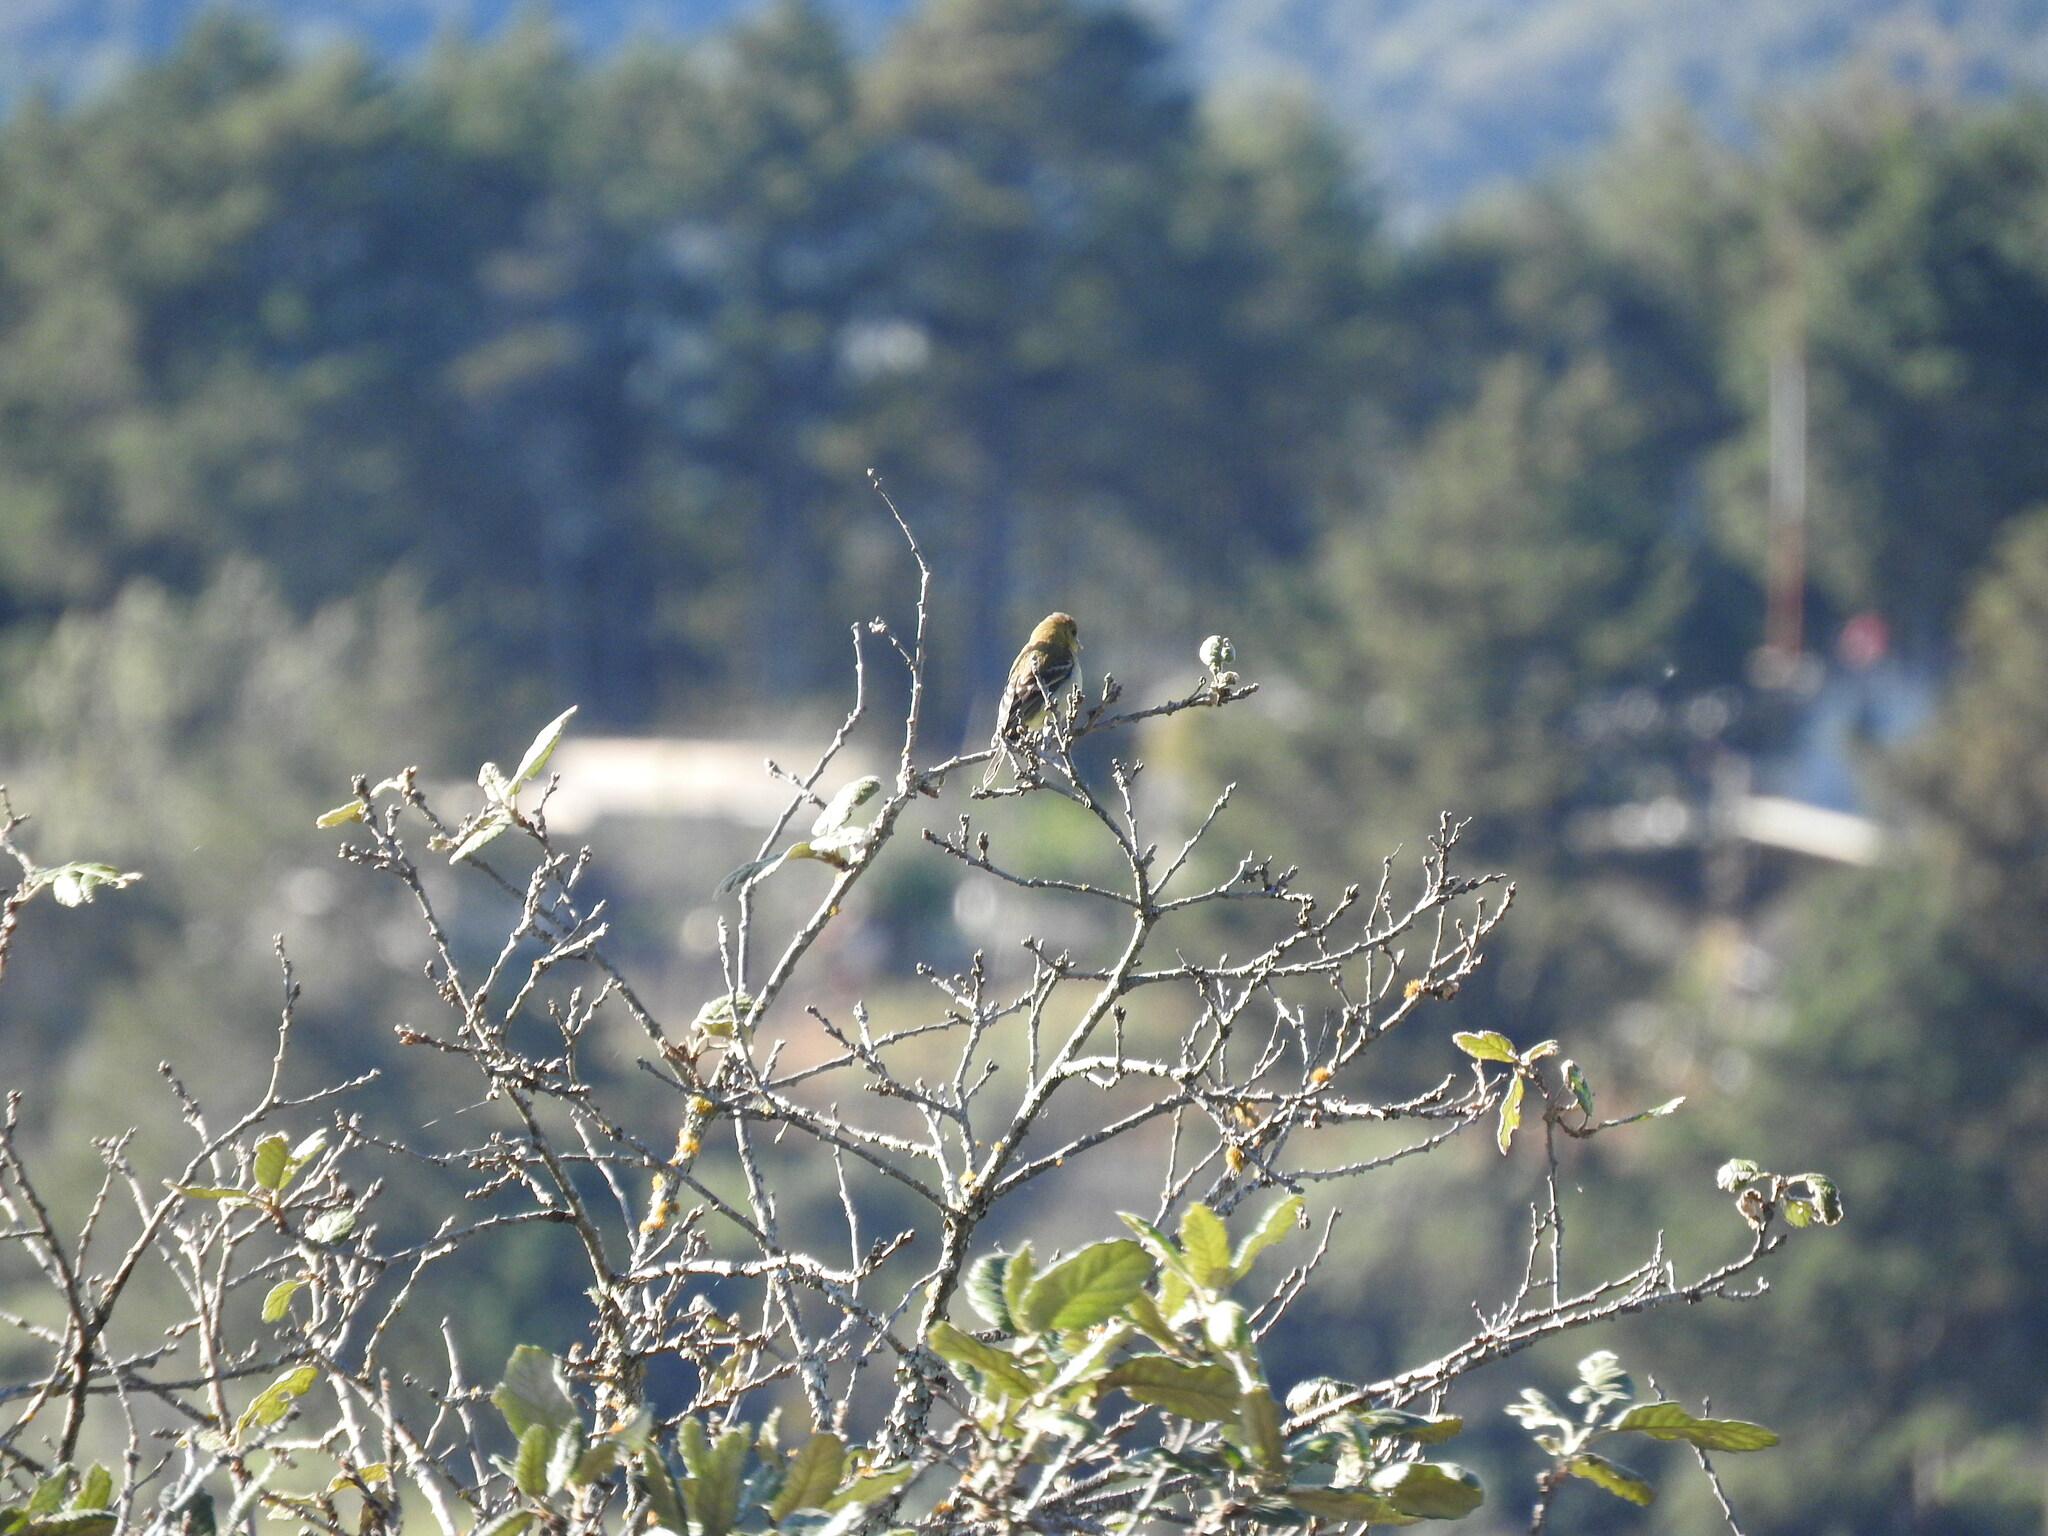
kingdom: Animalia
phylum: Chordata
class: Aves
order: Passeriformes
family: Fringillidae
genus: Spinus
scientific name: Spinus psaltria
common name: Lesser goldfinch
